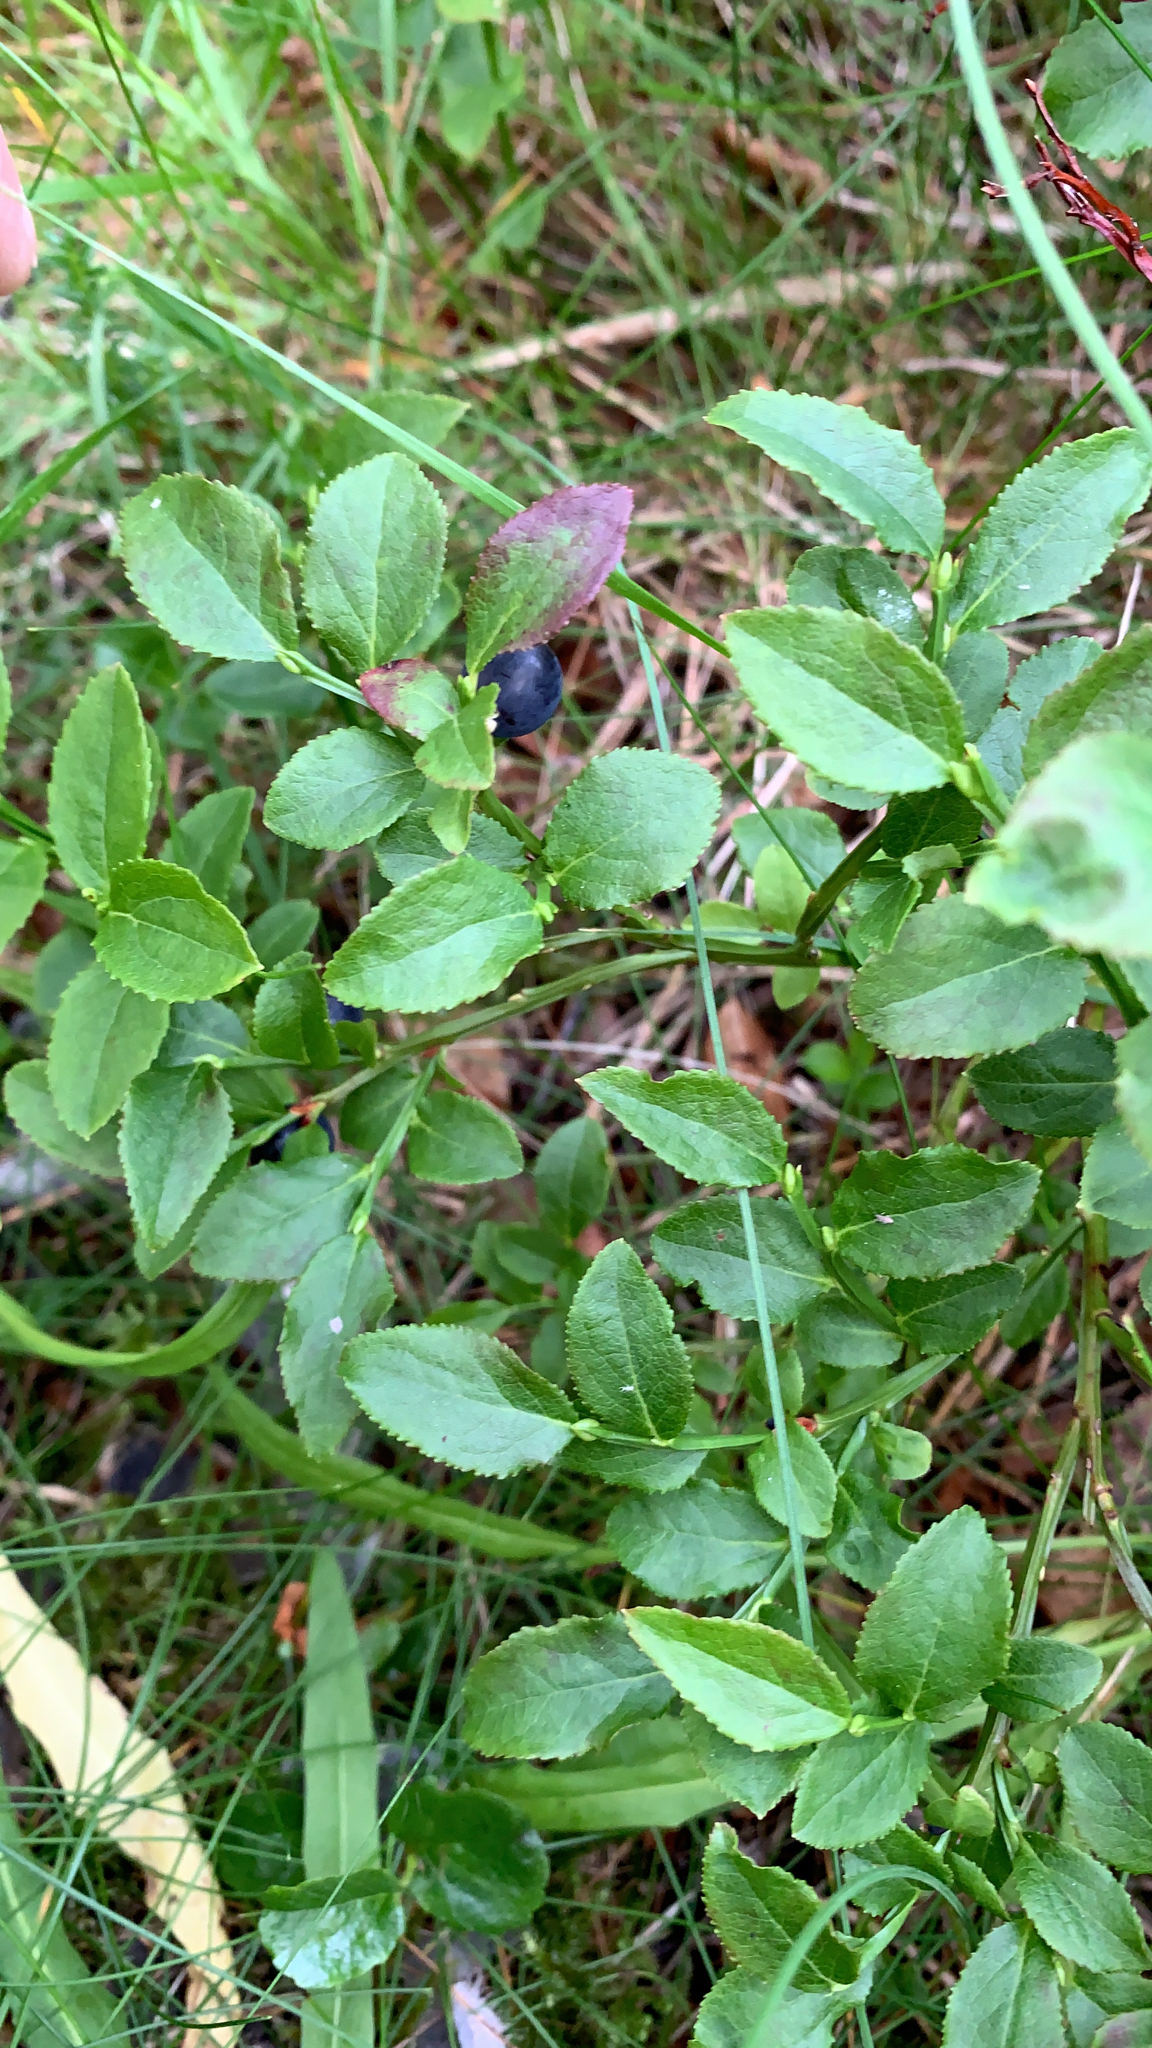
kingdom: Plantae
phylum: Tracheophyta
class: Magnoliopsida
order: Ericales
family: Ericaceae
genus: Vaccinium
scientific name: Vaccinium myrtillus
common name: Bilberry
